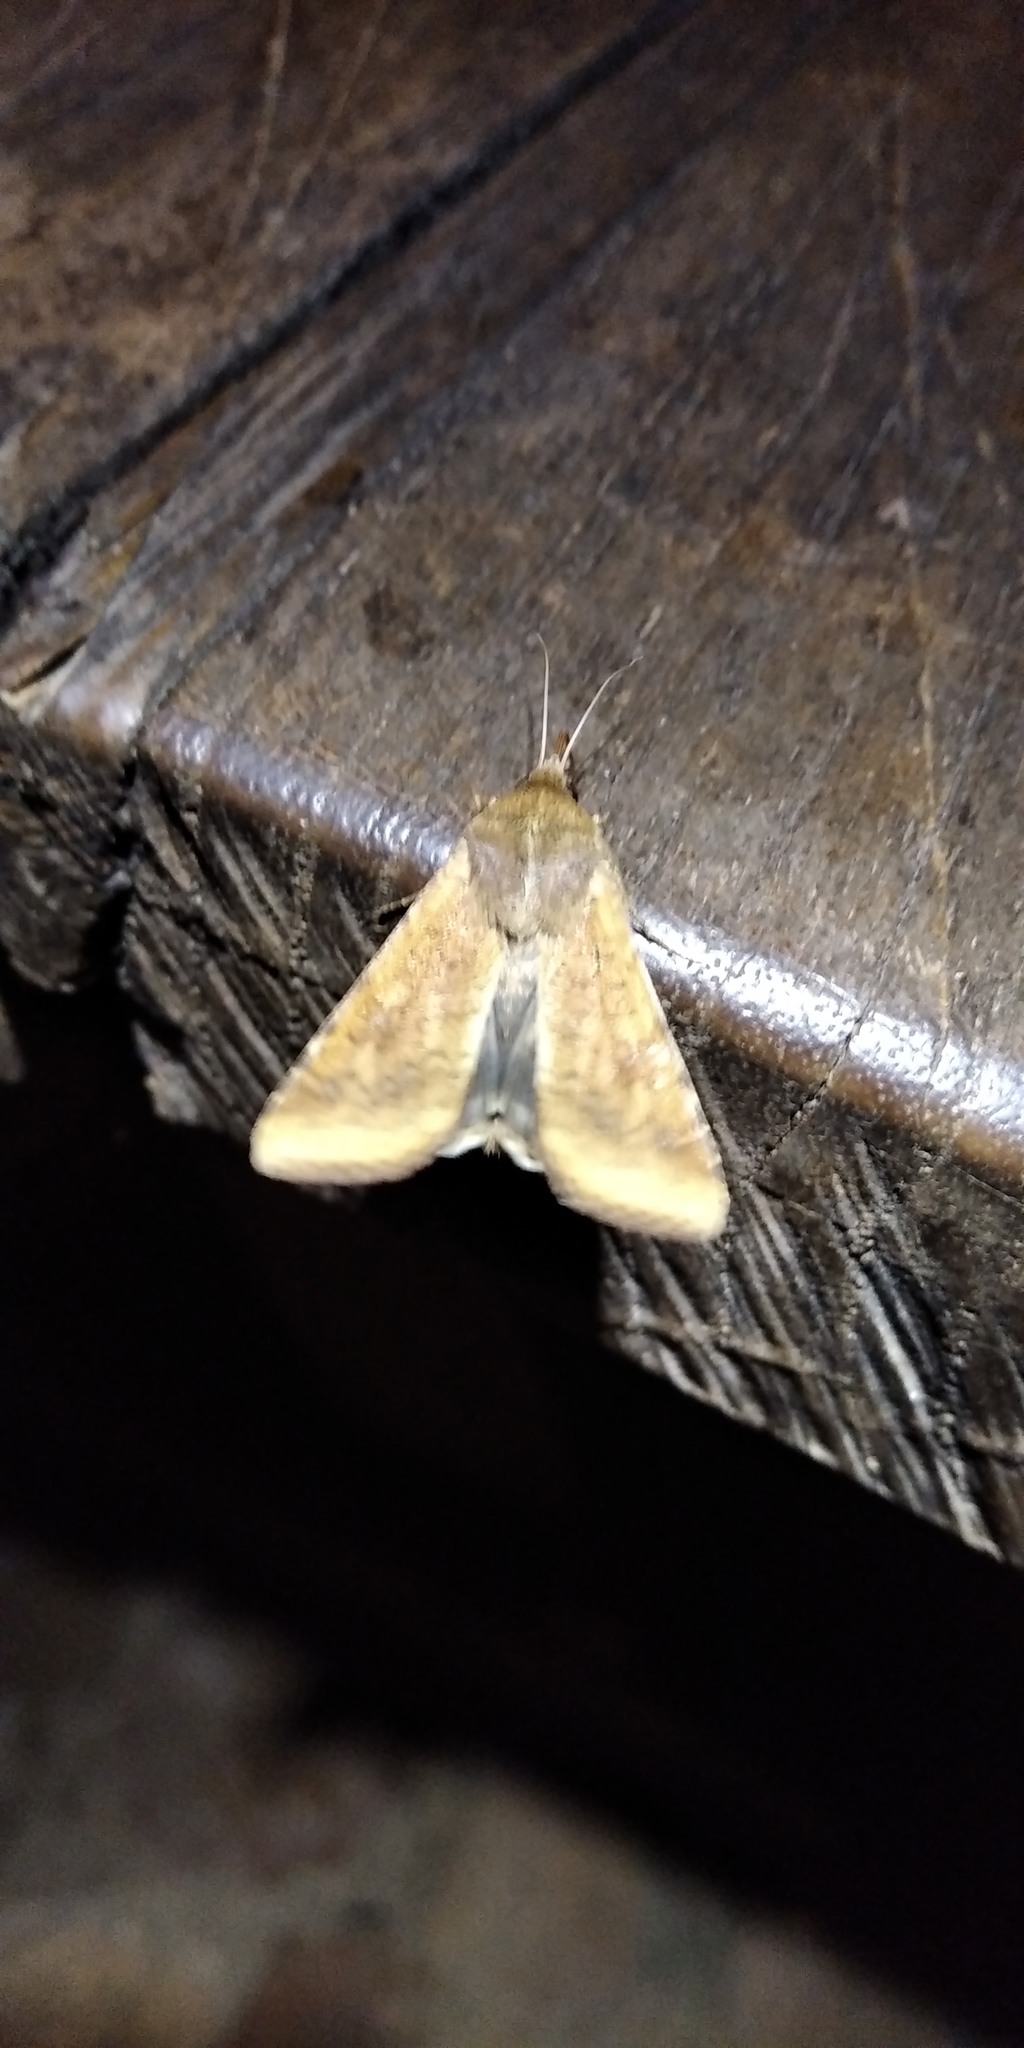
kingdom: Animalia
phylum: Arthropoda
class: Insecta
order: Lepidoptera
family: Noctuidae
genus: Helicoverpa
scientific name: Helicoverpa armigera
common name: Cotton bollworm
